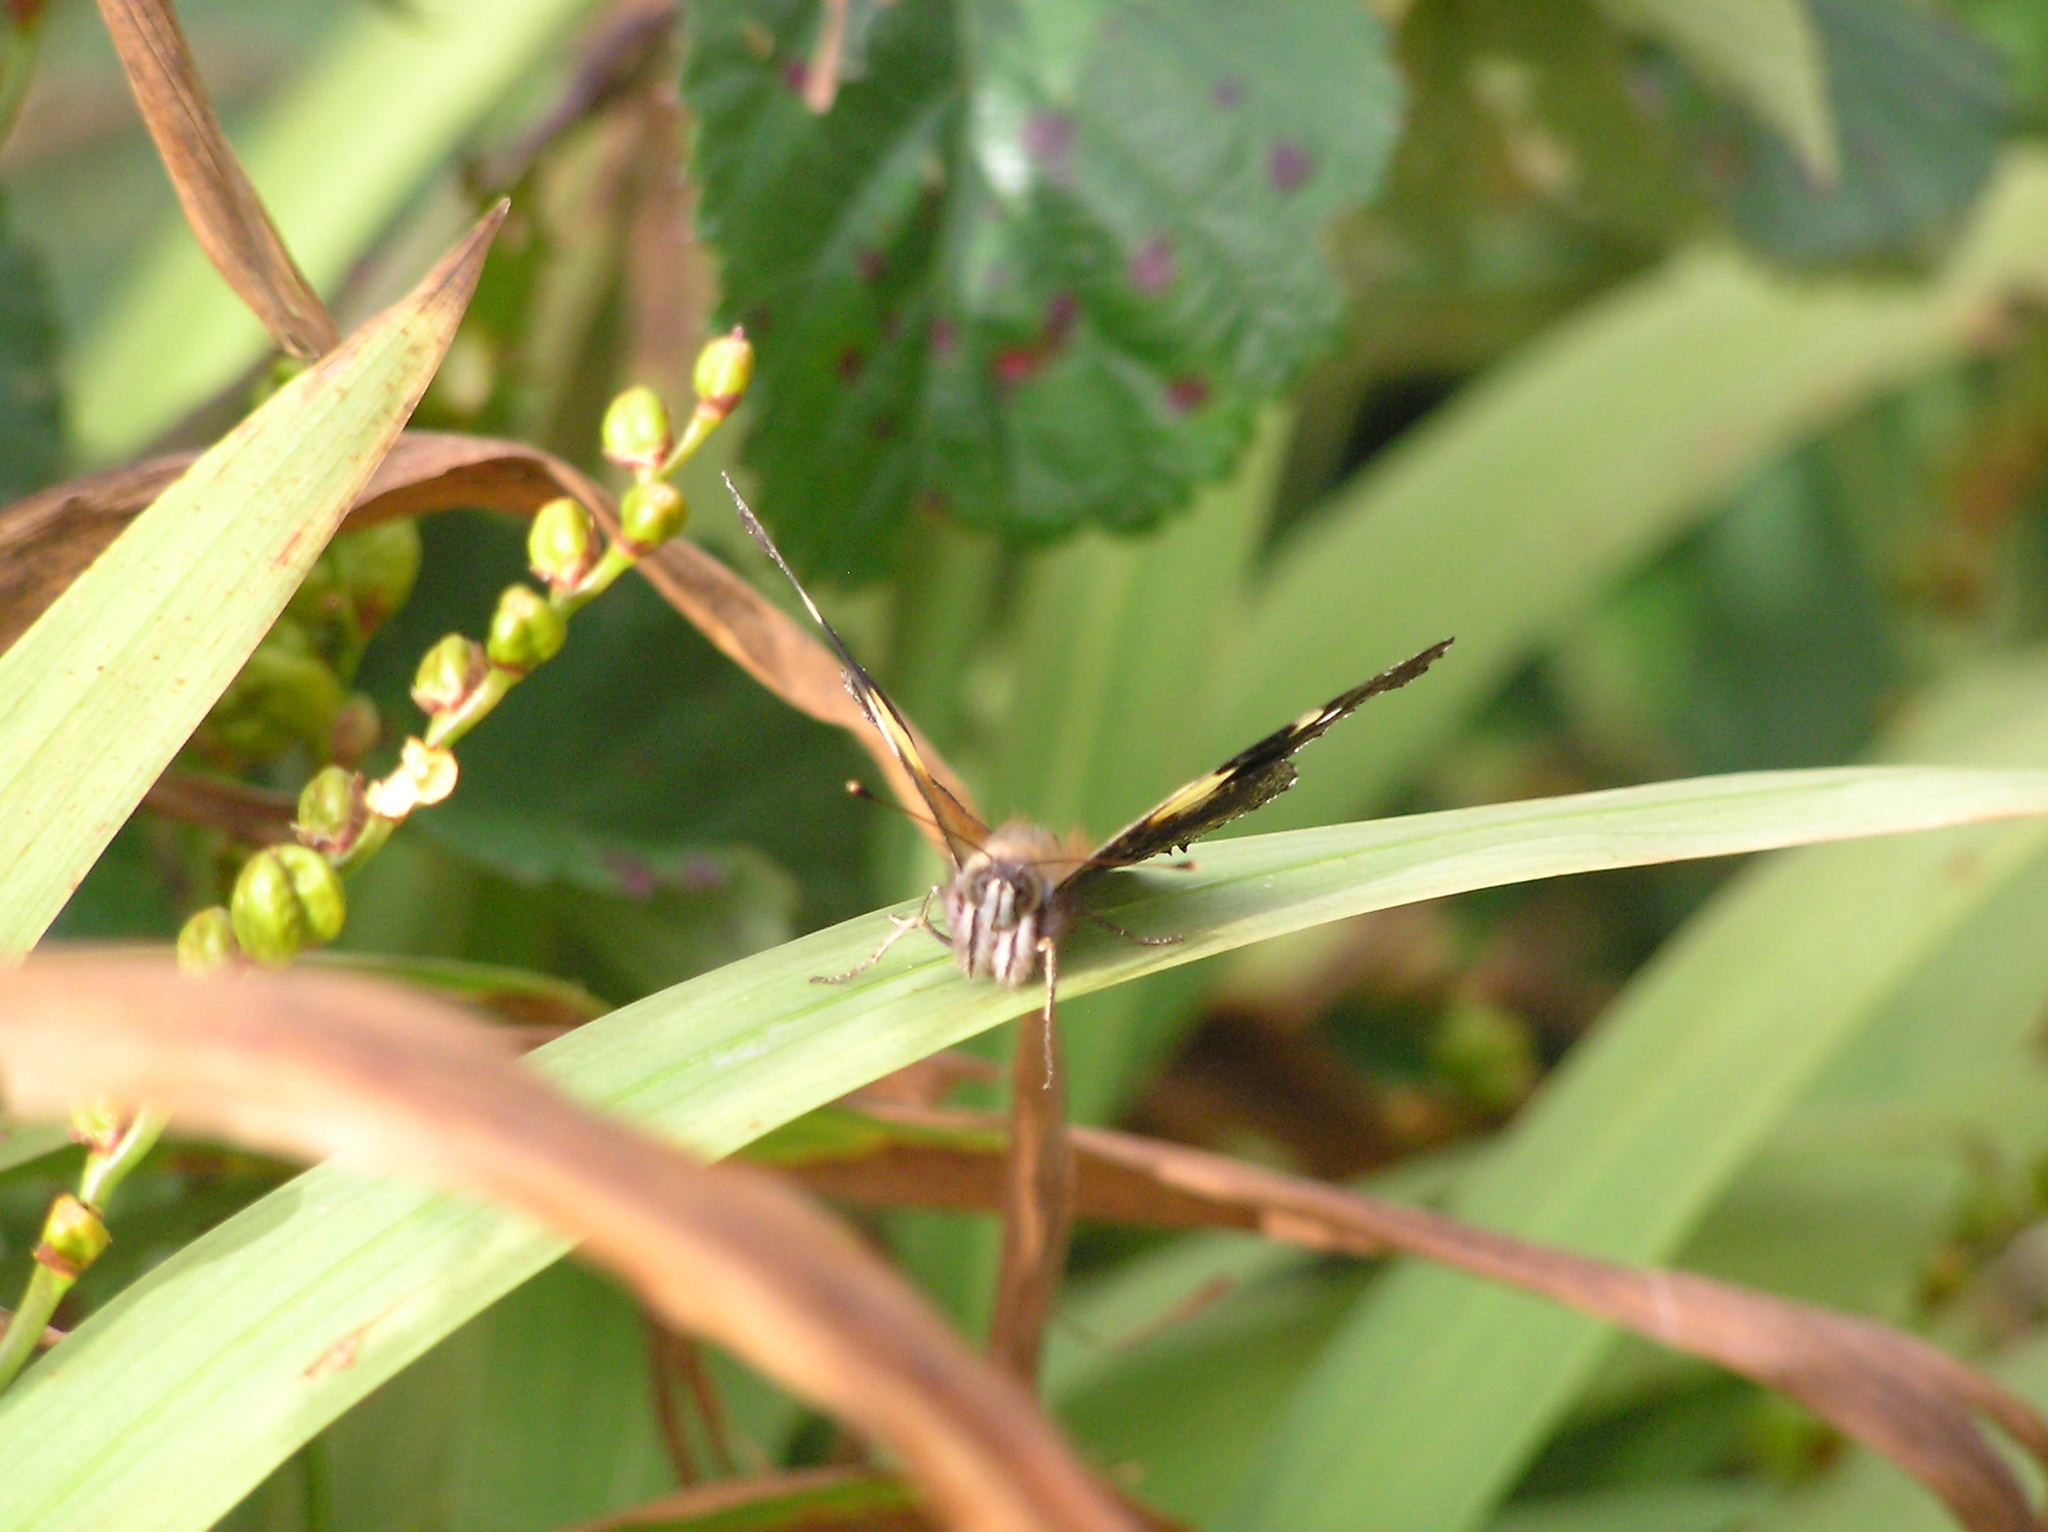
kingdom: Animalia
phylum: Arthropoda
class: Insecta
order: Lepidoptera
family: Nymphalidae
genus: Vanessa
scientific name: Vanessa itea
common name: Yellow admiral
